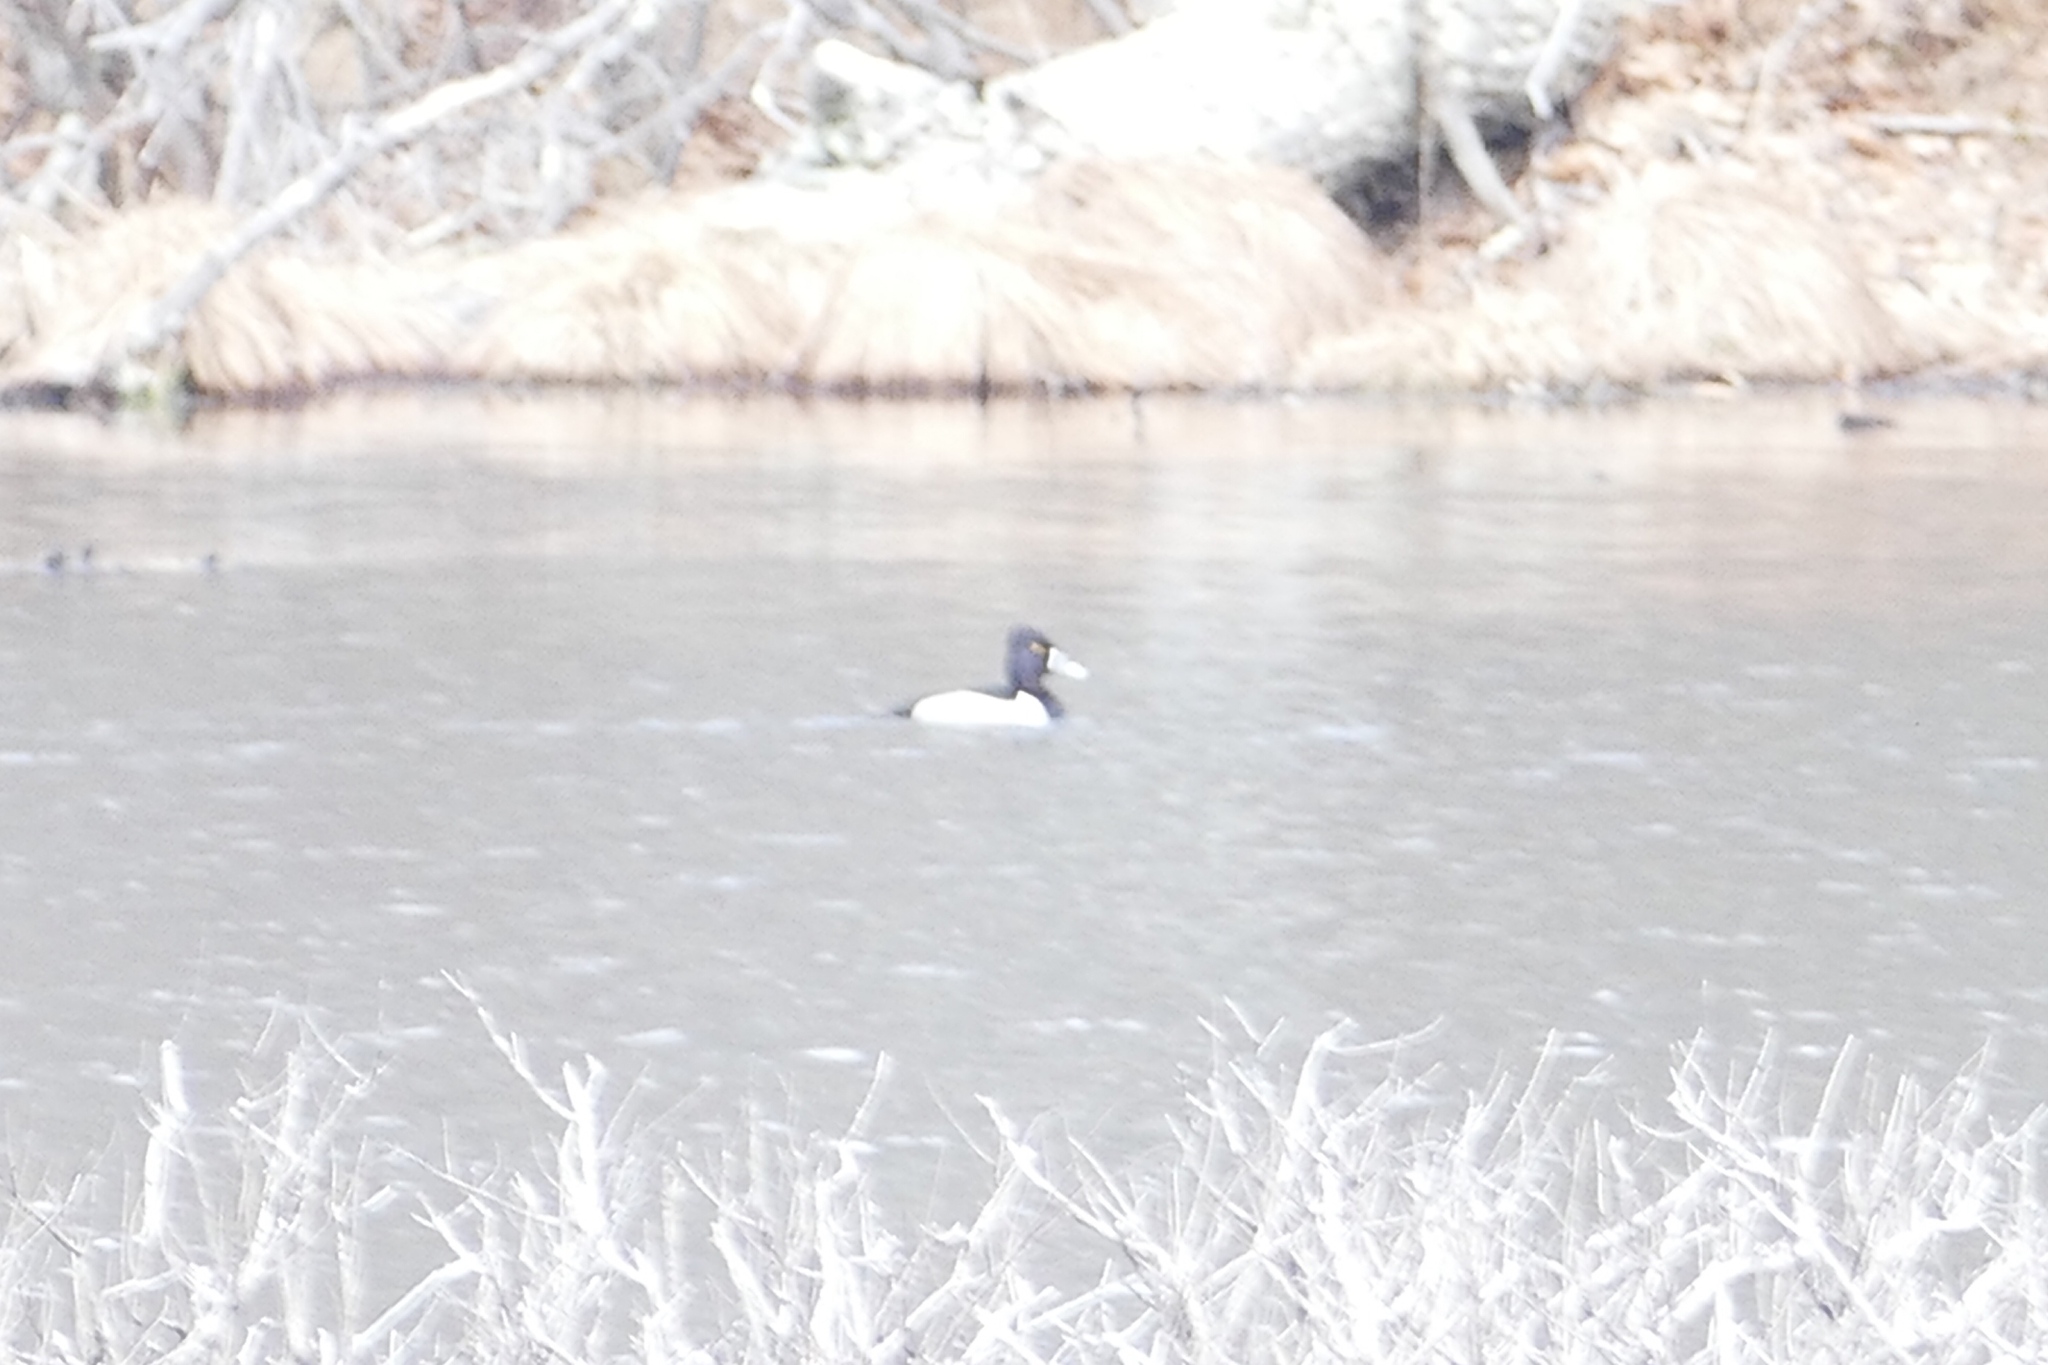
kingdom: Animalia
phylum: Chordata
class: Aves
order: Anseriformes
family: Anatidae
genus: Aythya
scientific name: Aythya collaris
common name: Ring-necked duck
